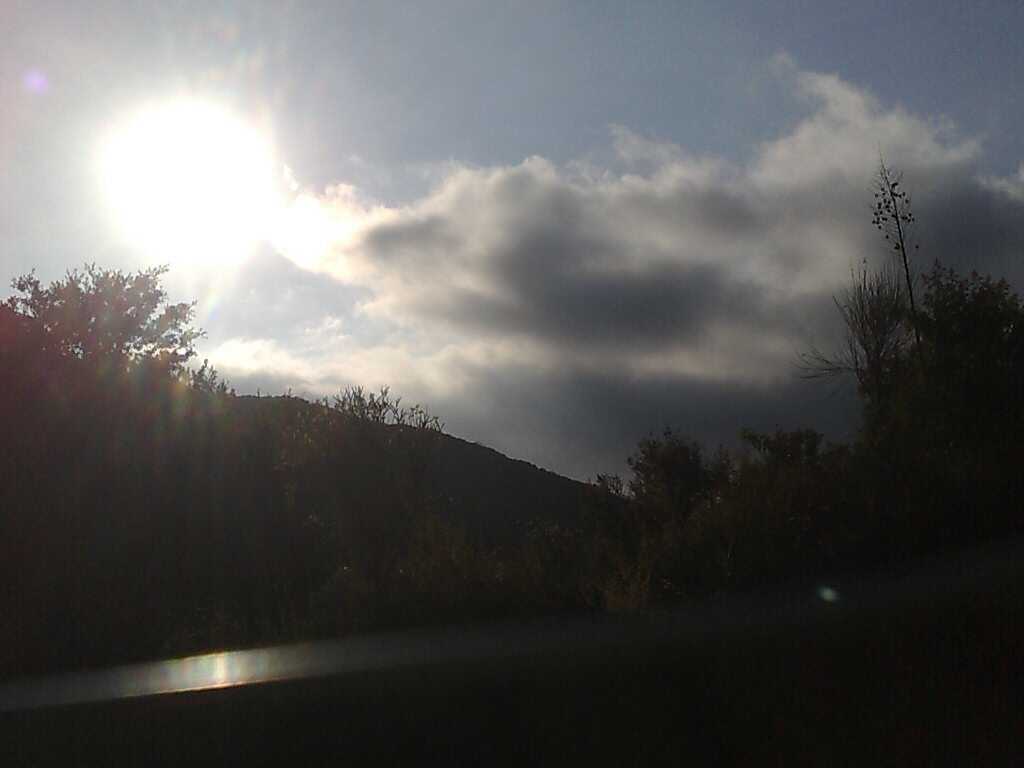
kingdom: Plantae
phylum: Tracheophyta
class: Liliopsida
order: Asparagales
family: Asparagaceae
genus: Hesperoyucca
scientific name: Hesperoyucca whipplei
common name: Our lord's-candle
